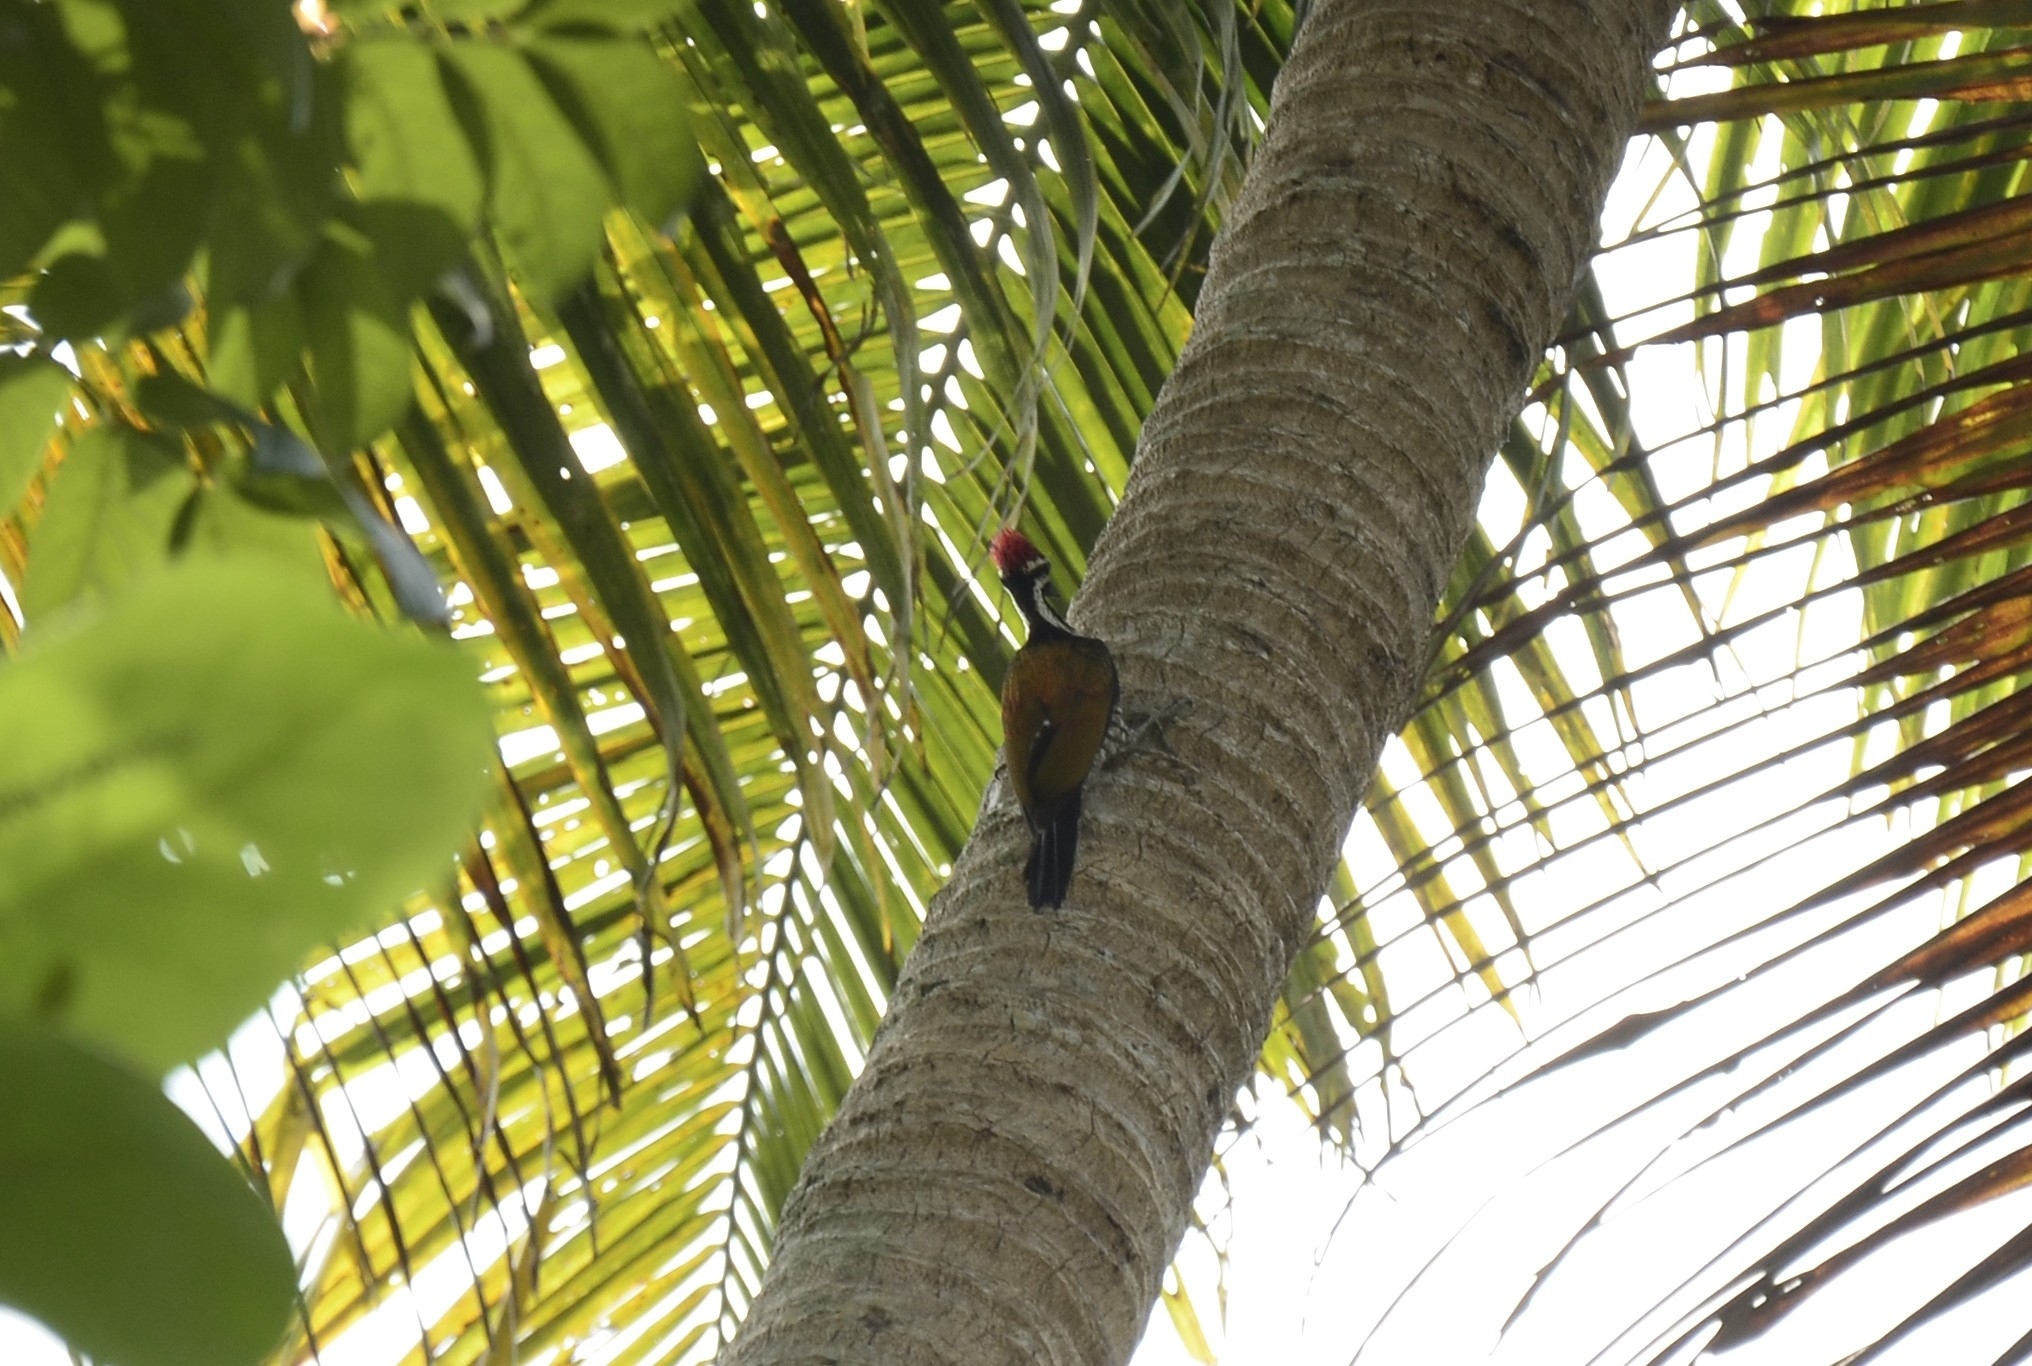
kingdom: Animalia
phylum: Chordata
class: Aves
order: Piciformes
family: Picidae
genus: Dinopium
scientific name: Dinopium benghalense
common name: Black-rumped flameback
